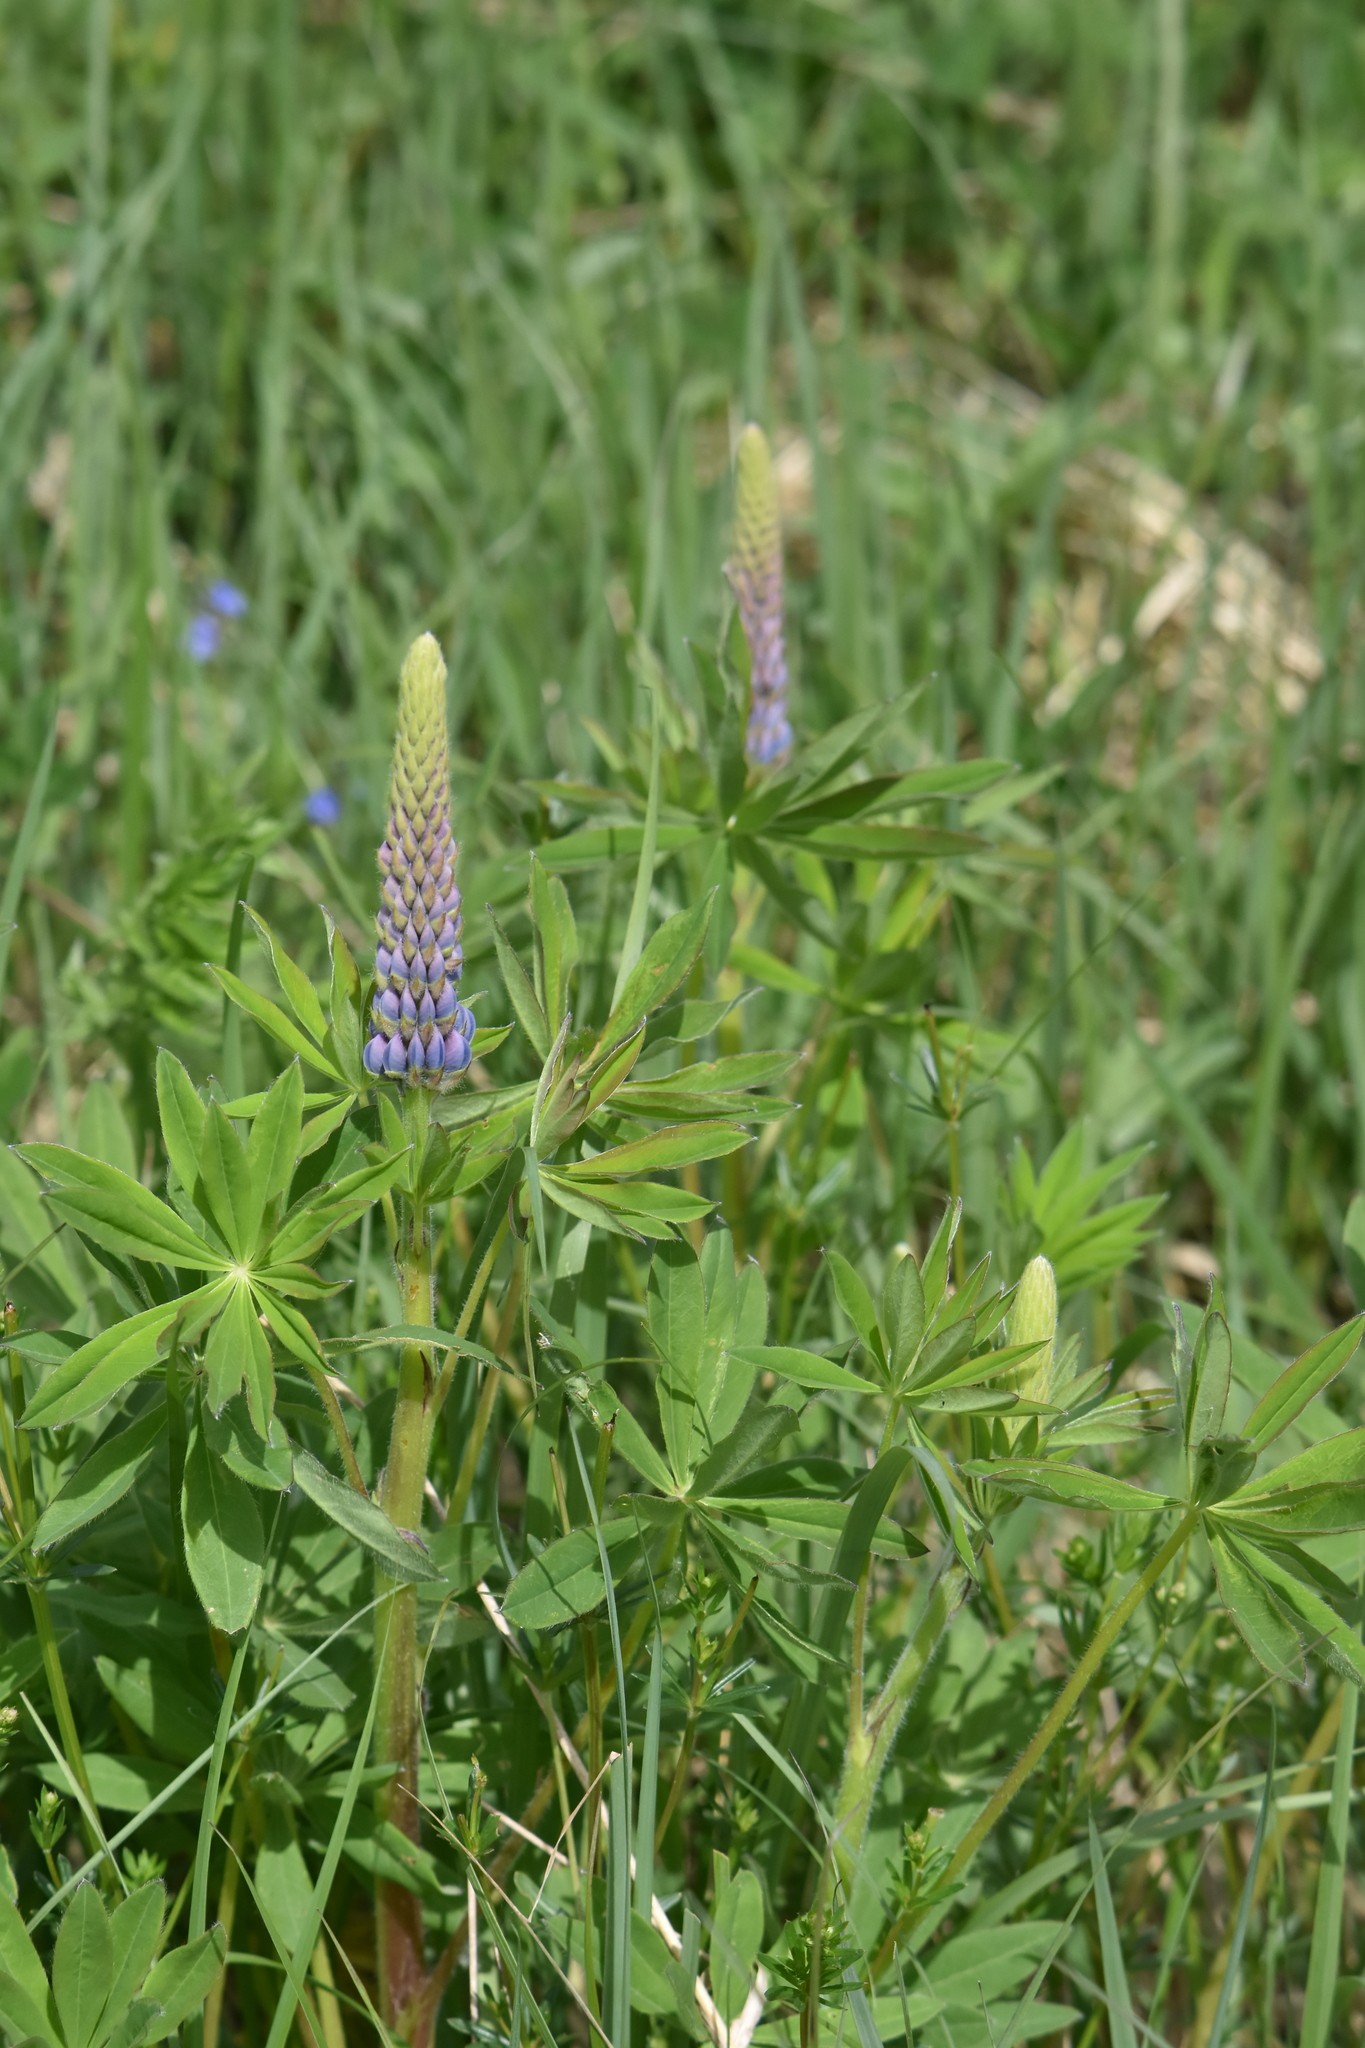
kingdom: Plantae
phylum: Tracheophyta
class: Magnoliopsida
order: Fabales
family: Fabaceae
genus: Lupinus
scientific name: Lupinus polyphyllus
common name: Garden lupin
